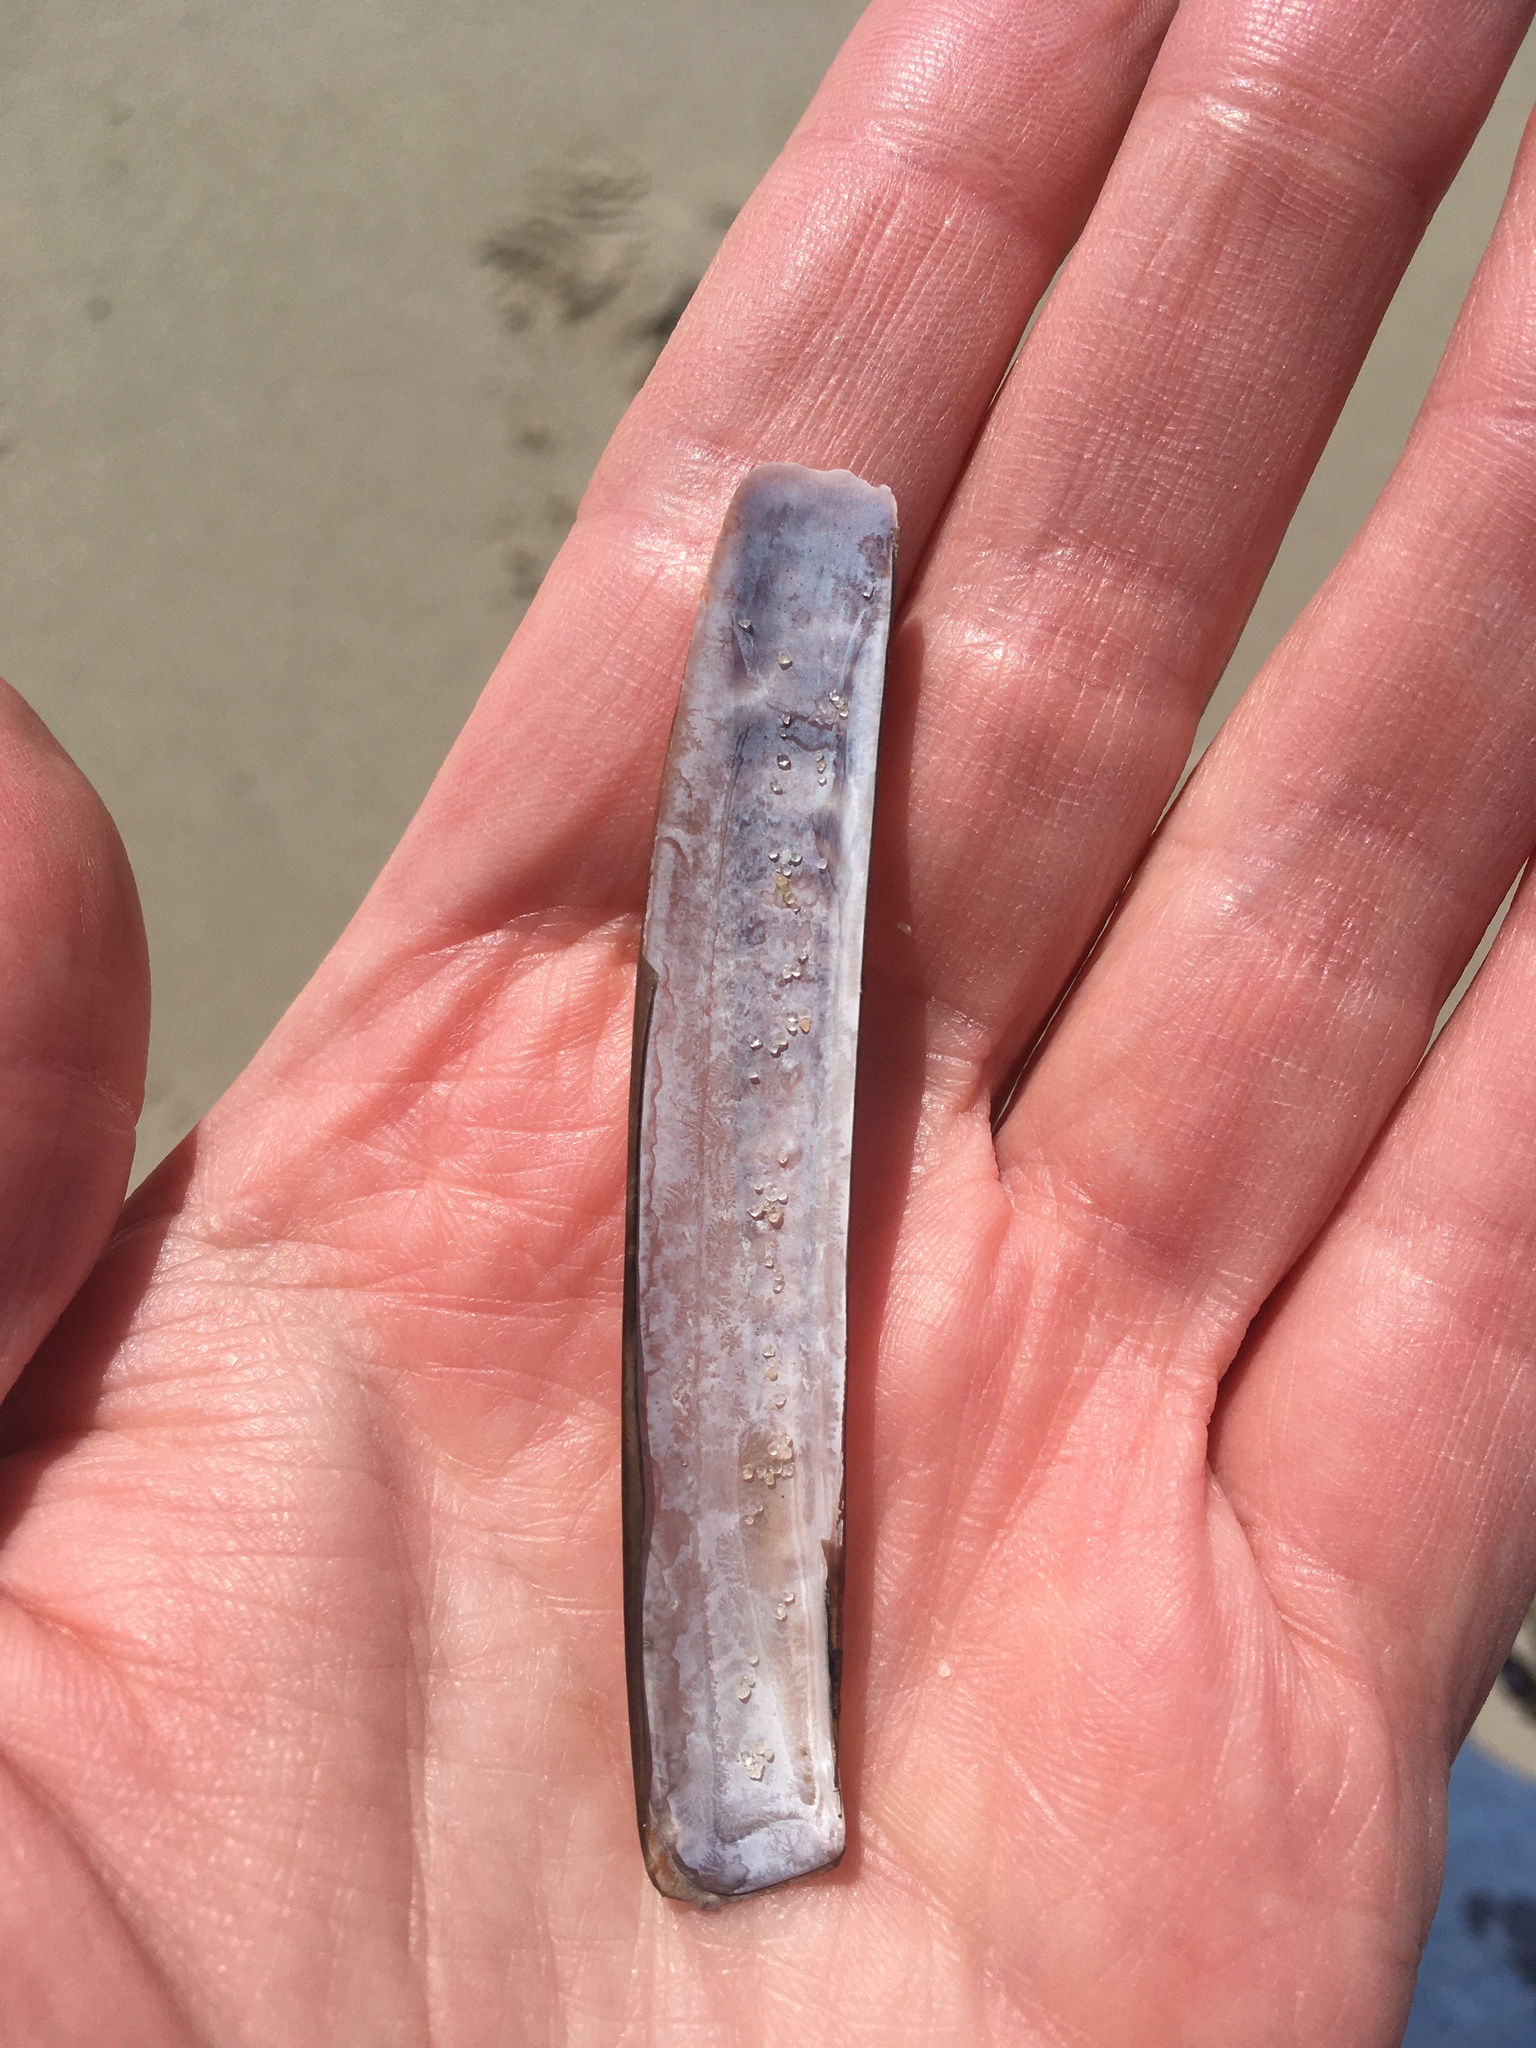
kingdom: Animalia
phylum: Mollusca
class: Bivalvia
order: Adapedonta
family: Pharidae
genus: Ensis
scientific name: Ensis leei
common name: American jack knife clam
